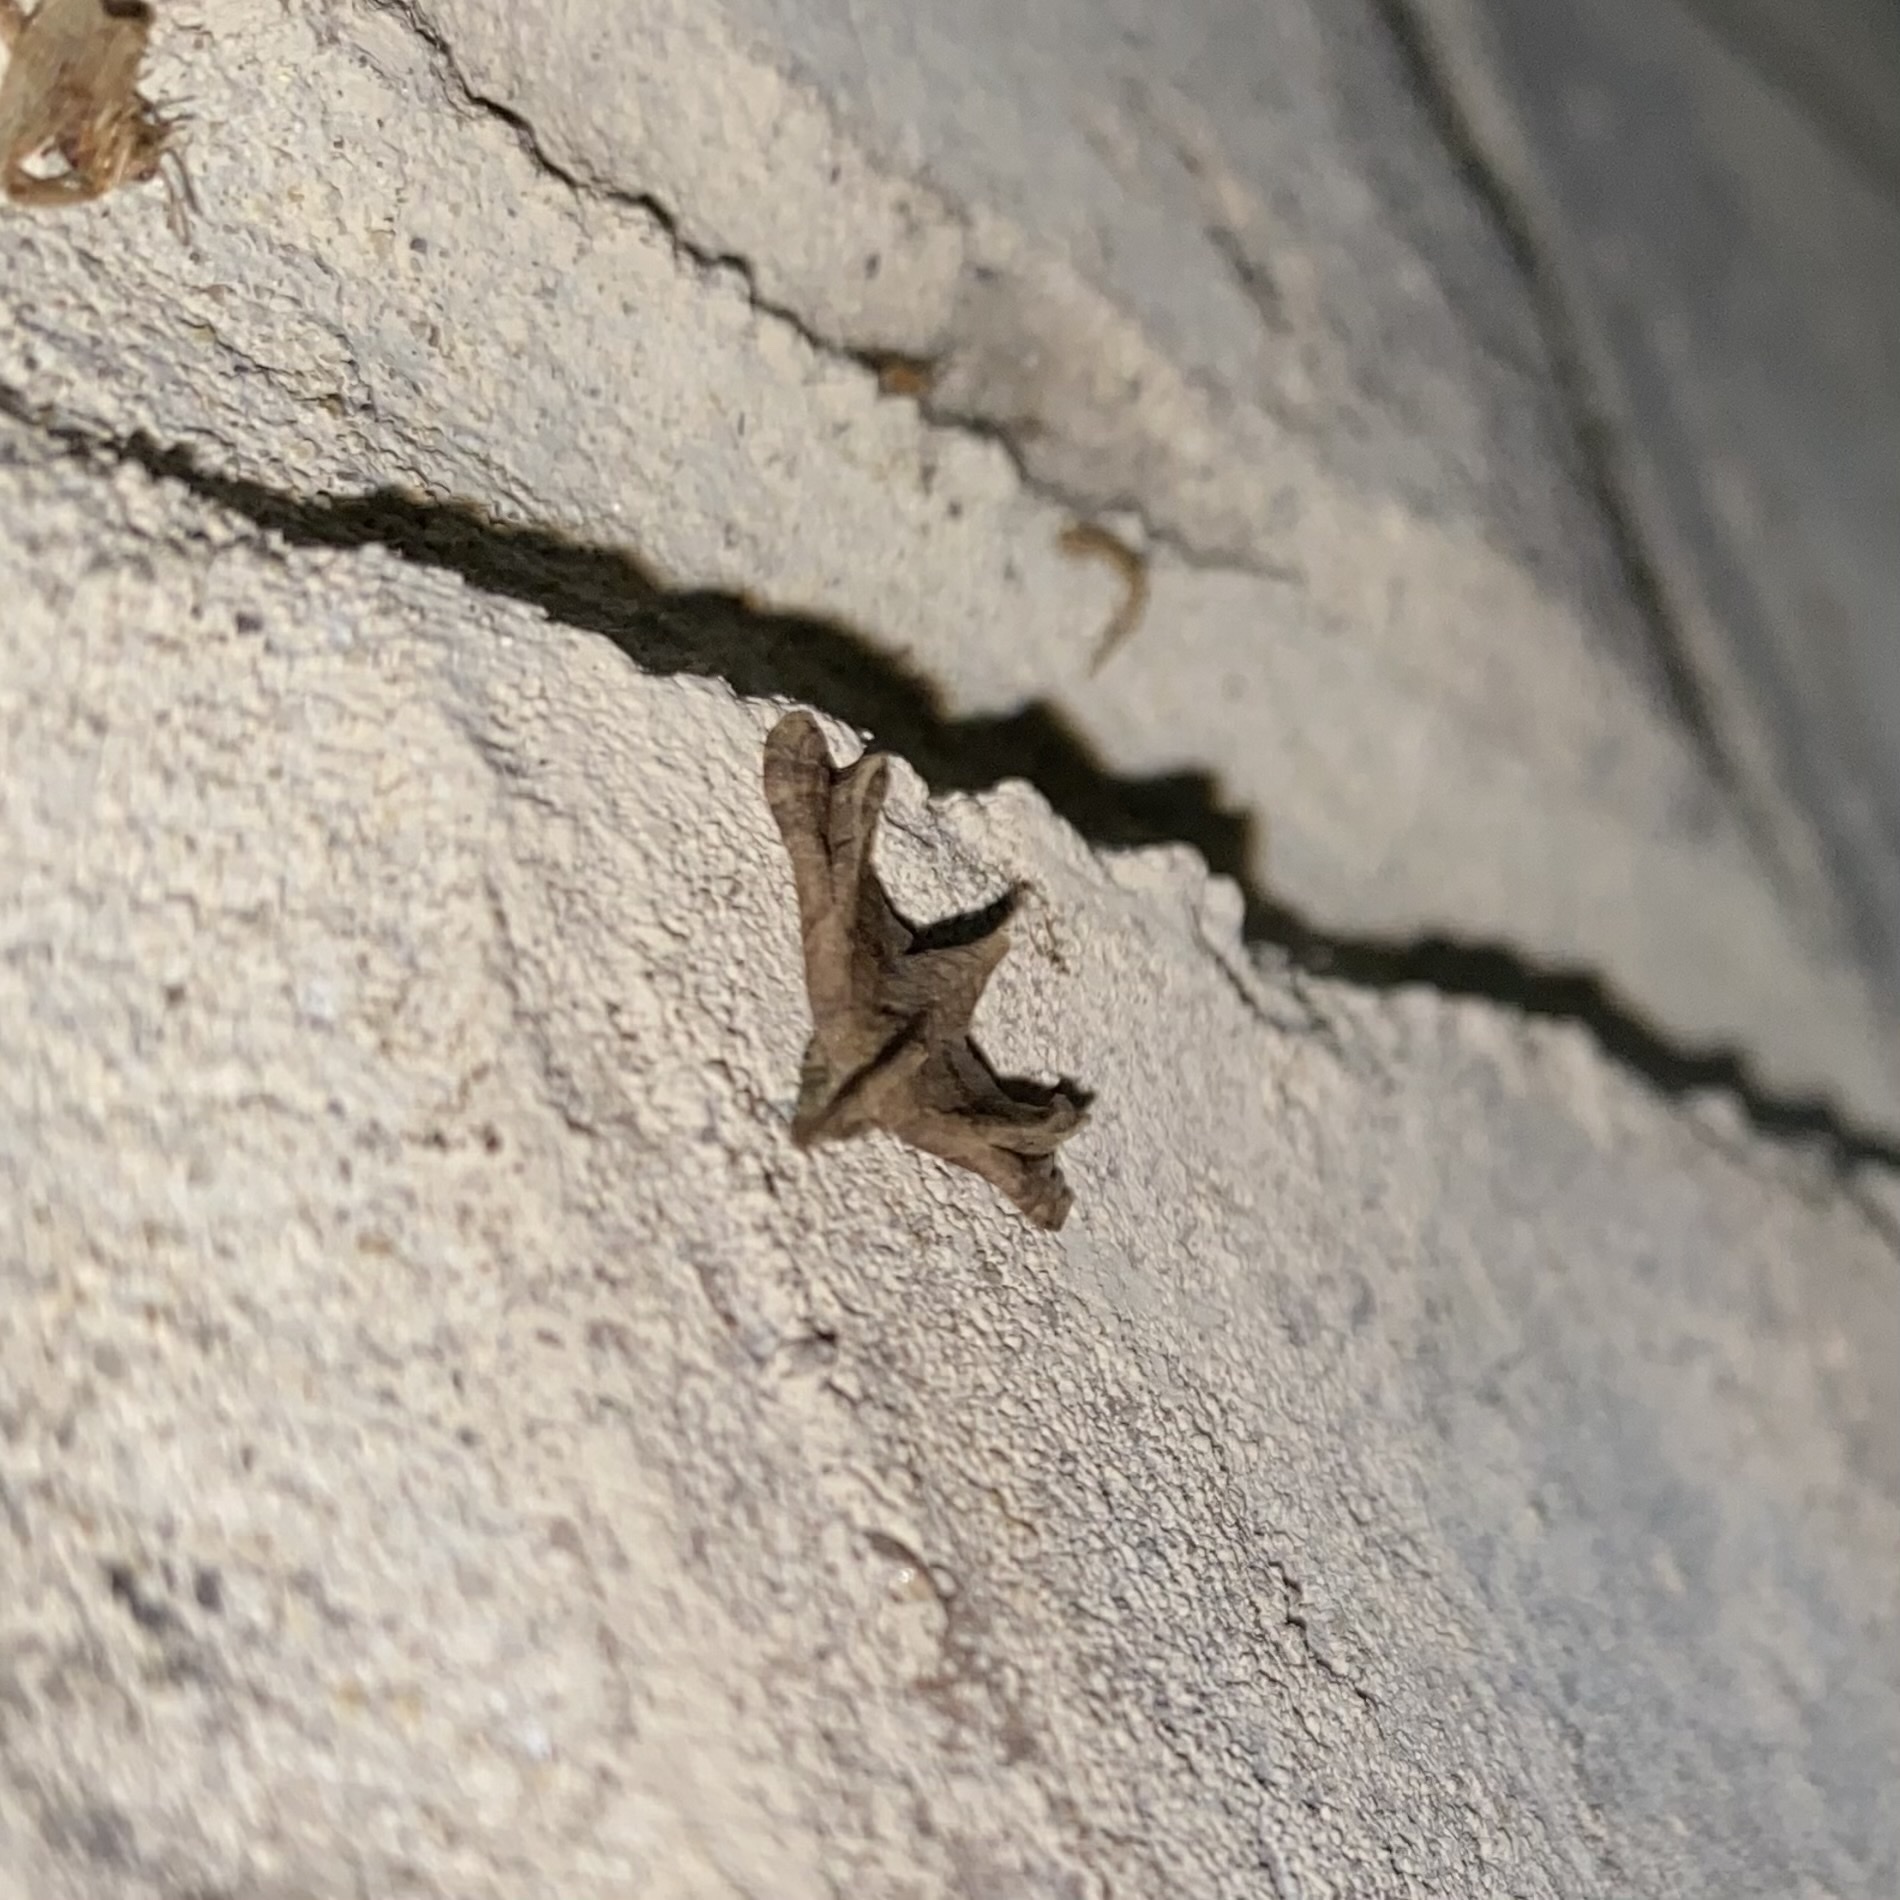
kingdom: Animalia
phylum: Arthropoda
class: Insecta
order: Lepidoptera
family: Erebidae
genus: Palthis
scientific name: Palthis asopialis
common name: Faint-spotted palthis moth
